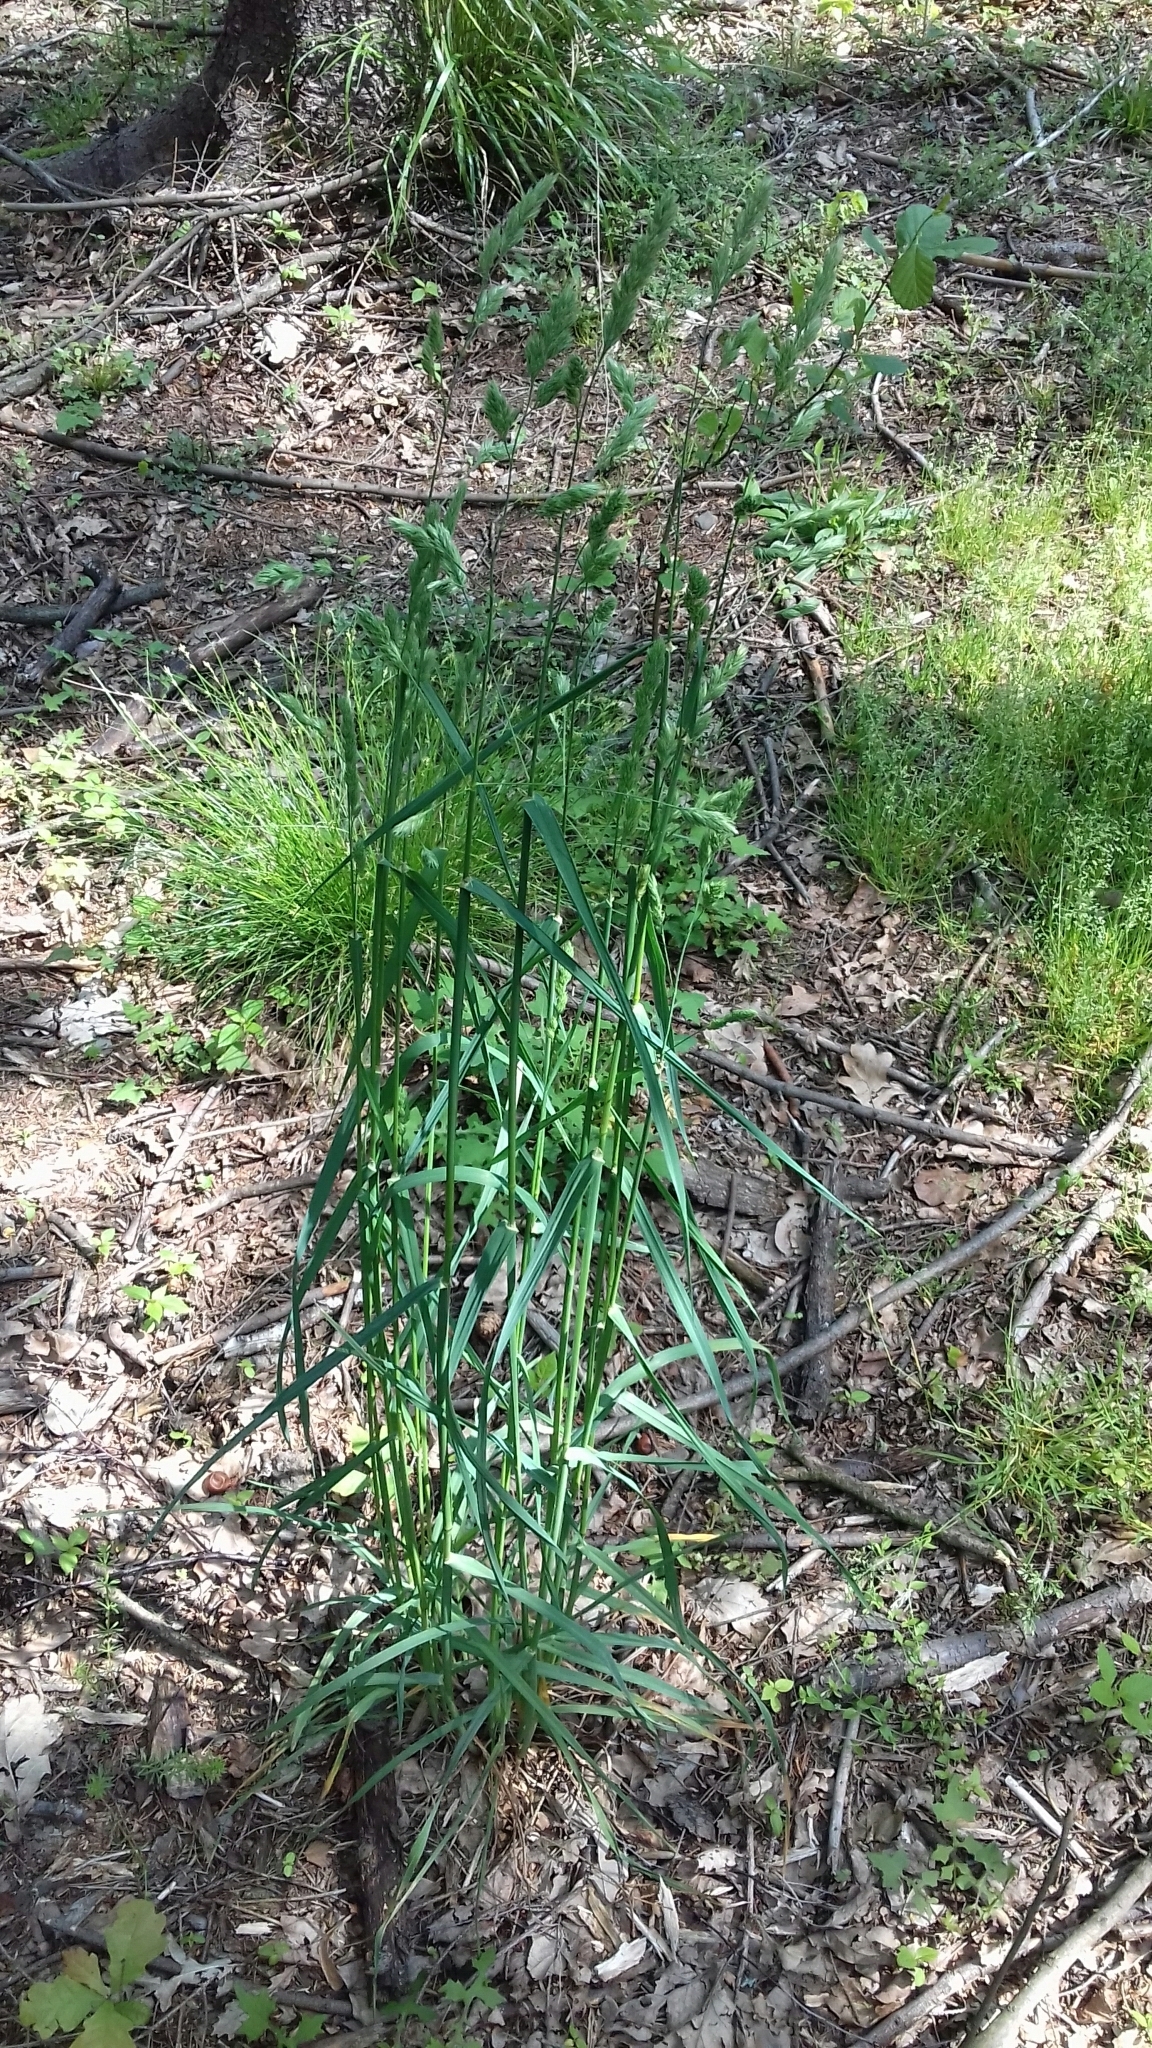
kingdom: Plantae
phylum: Tracheophyta
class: Liliopsida
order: Poales
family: Poaceae
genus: Dactylis
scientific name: Dactylis glomerata
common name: Orchardgrass
